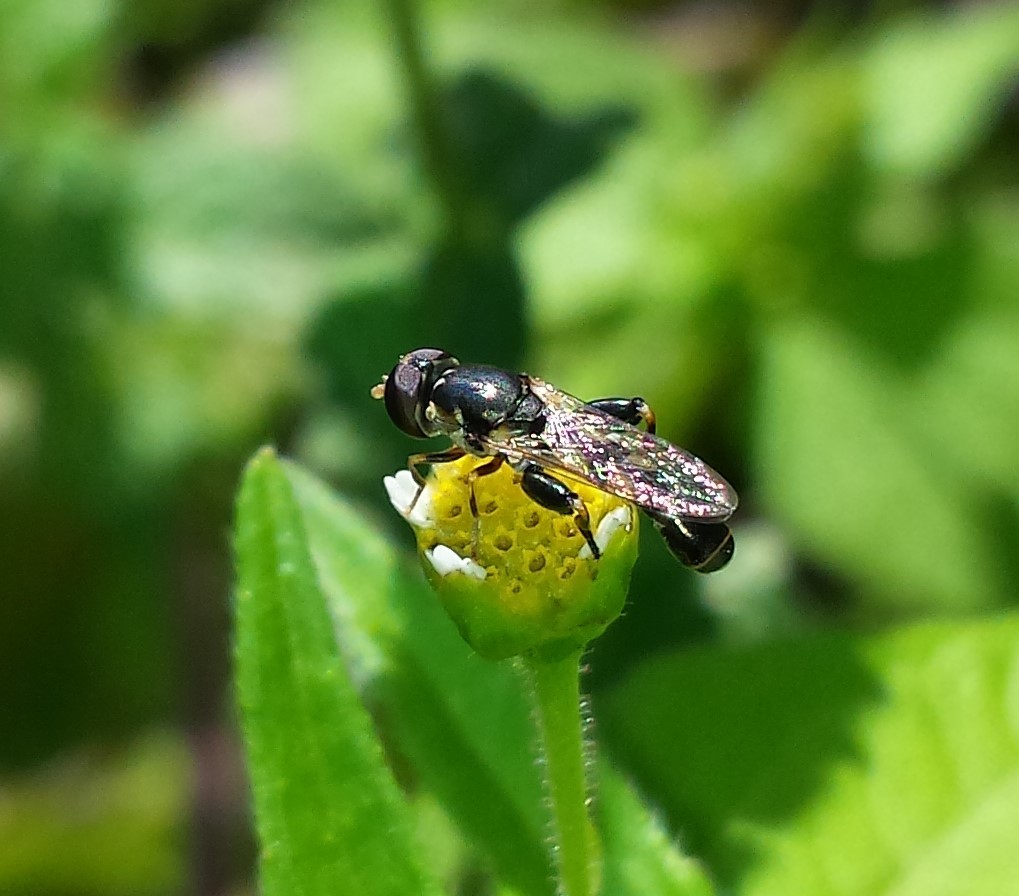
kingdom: Animalia
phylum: Arthropoda
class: Insecta
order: Diptera
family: Syrphidae
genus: Syritta
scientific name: Syritta pipiens
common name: Hover fly
